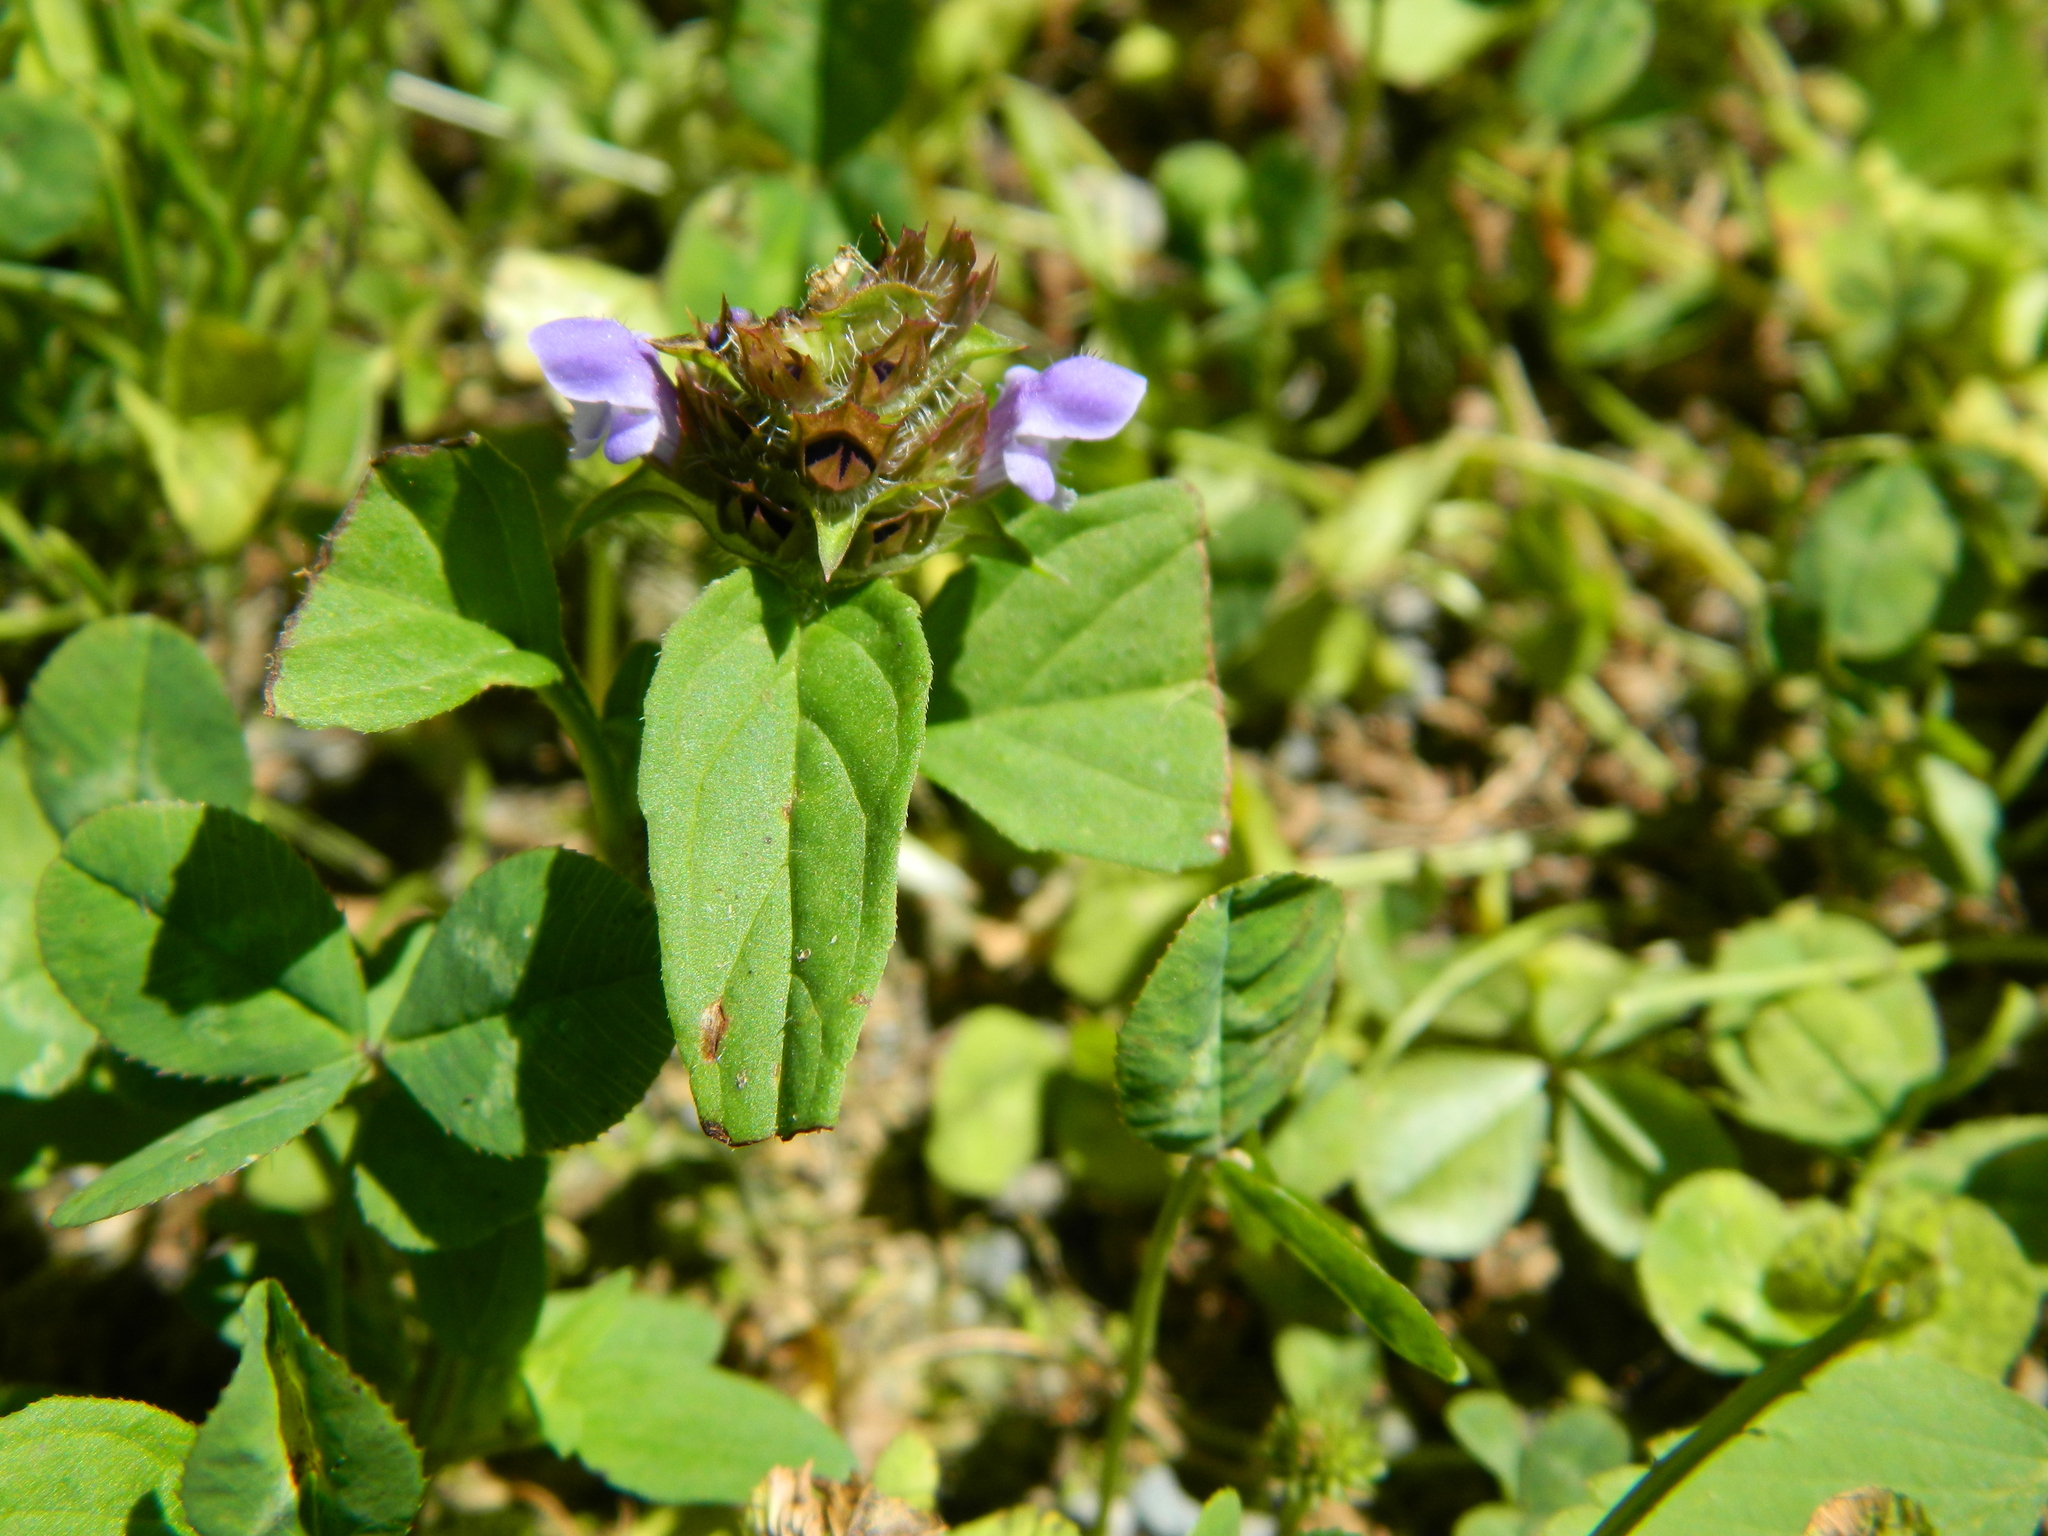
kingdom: Plantae
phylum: Tracheophyta
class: Magnoliopsida
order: Lamiales
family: Lamiaceae
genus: Prunella
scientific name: Prunella vulgaris
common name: Heal-all
